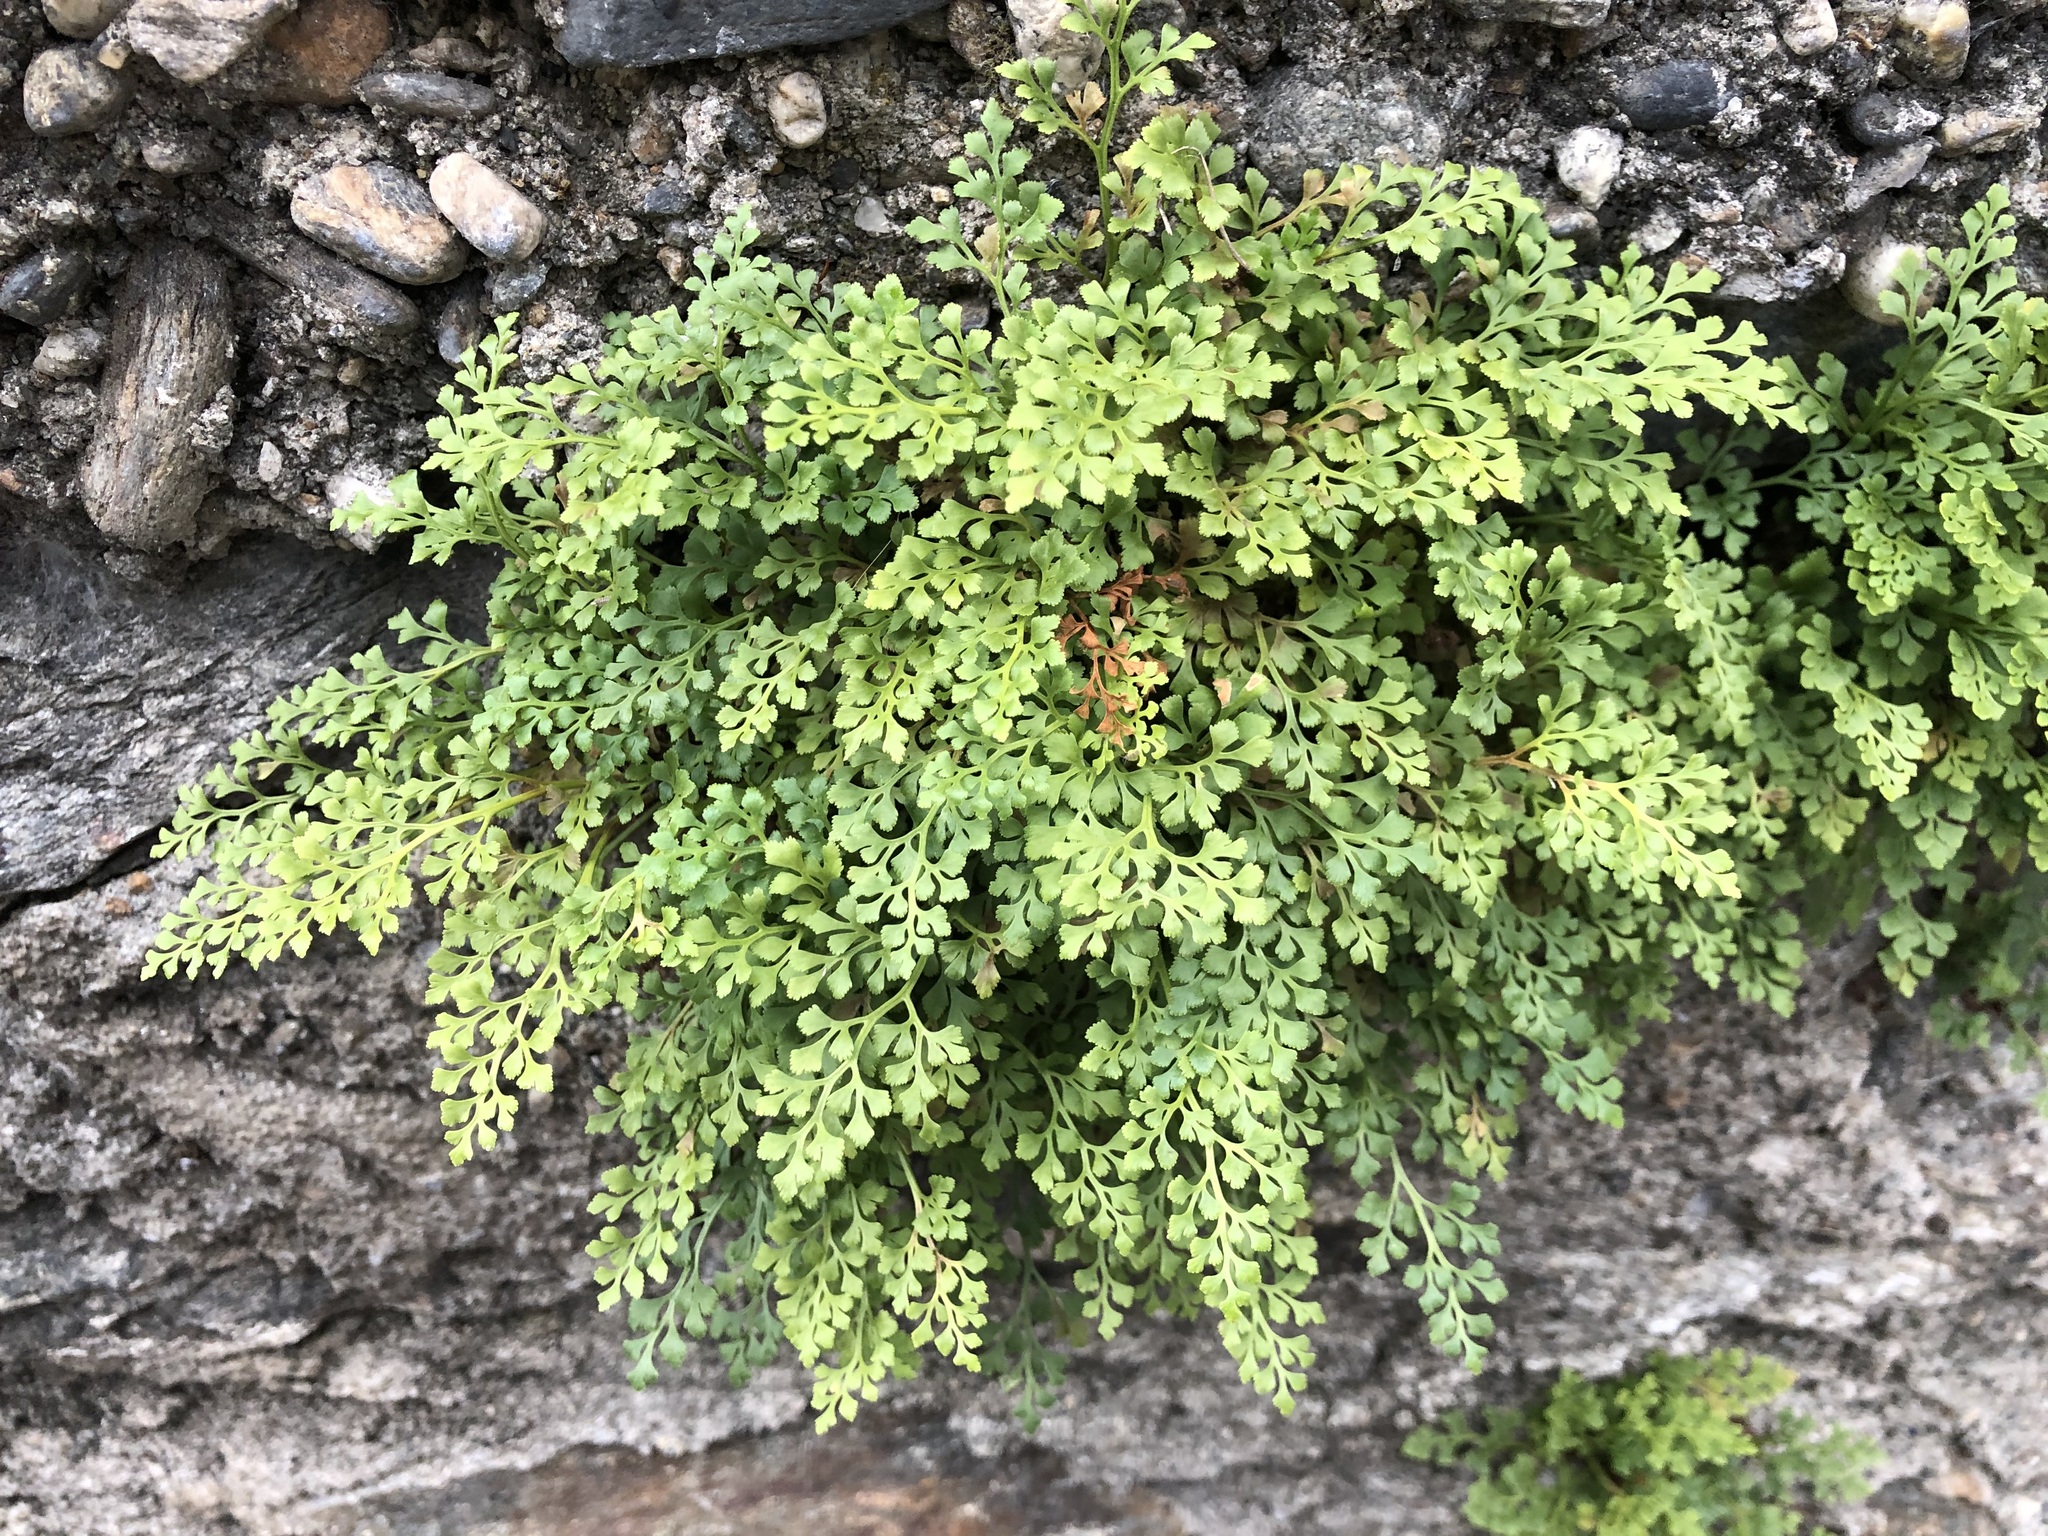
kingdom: Plantae
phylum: Tracheophyta
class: Polypodiopsida
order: Polypodiales
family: Aspleniaceae
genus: Asplenium
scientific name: Asplenium ruta-muraria
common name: Wall-rue
